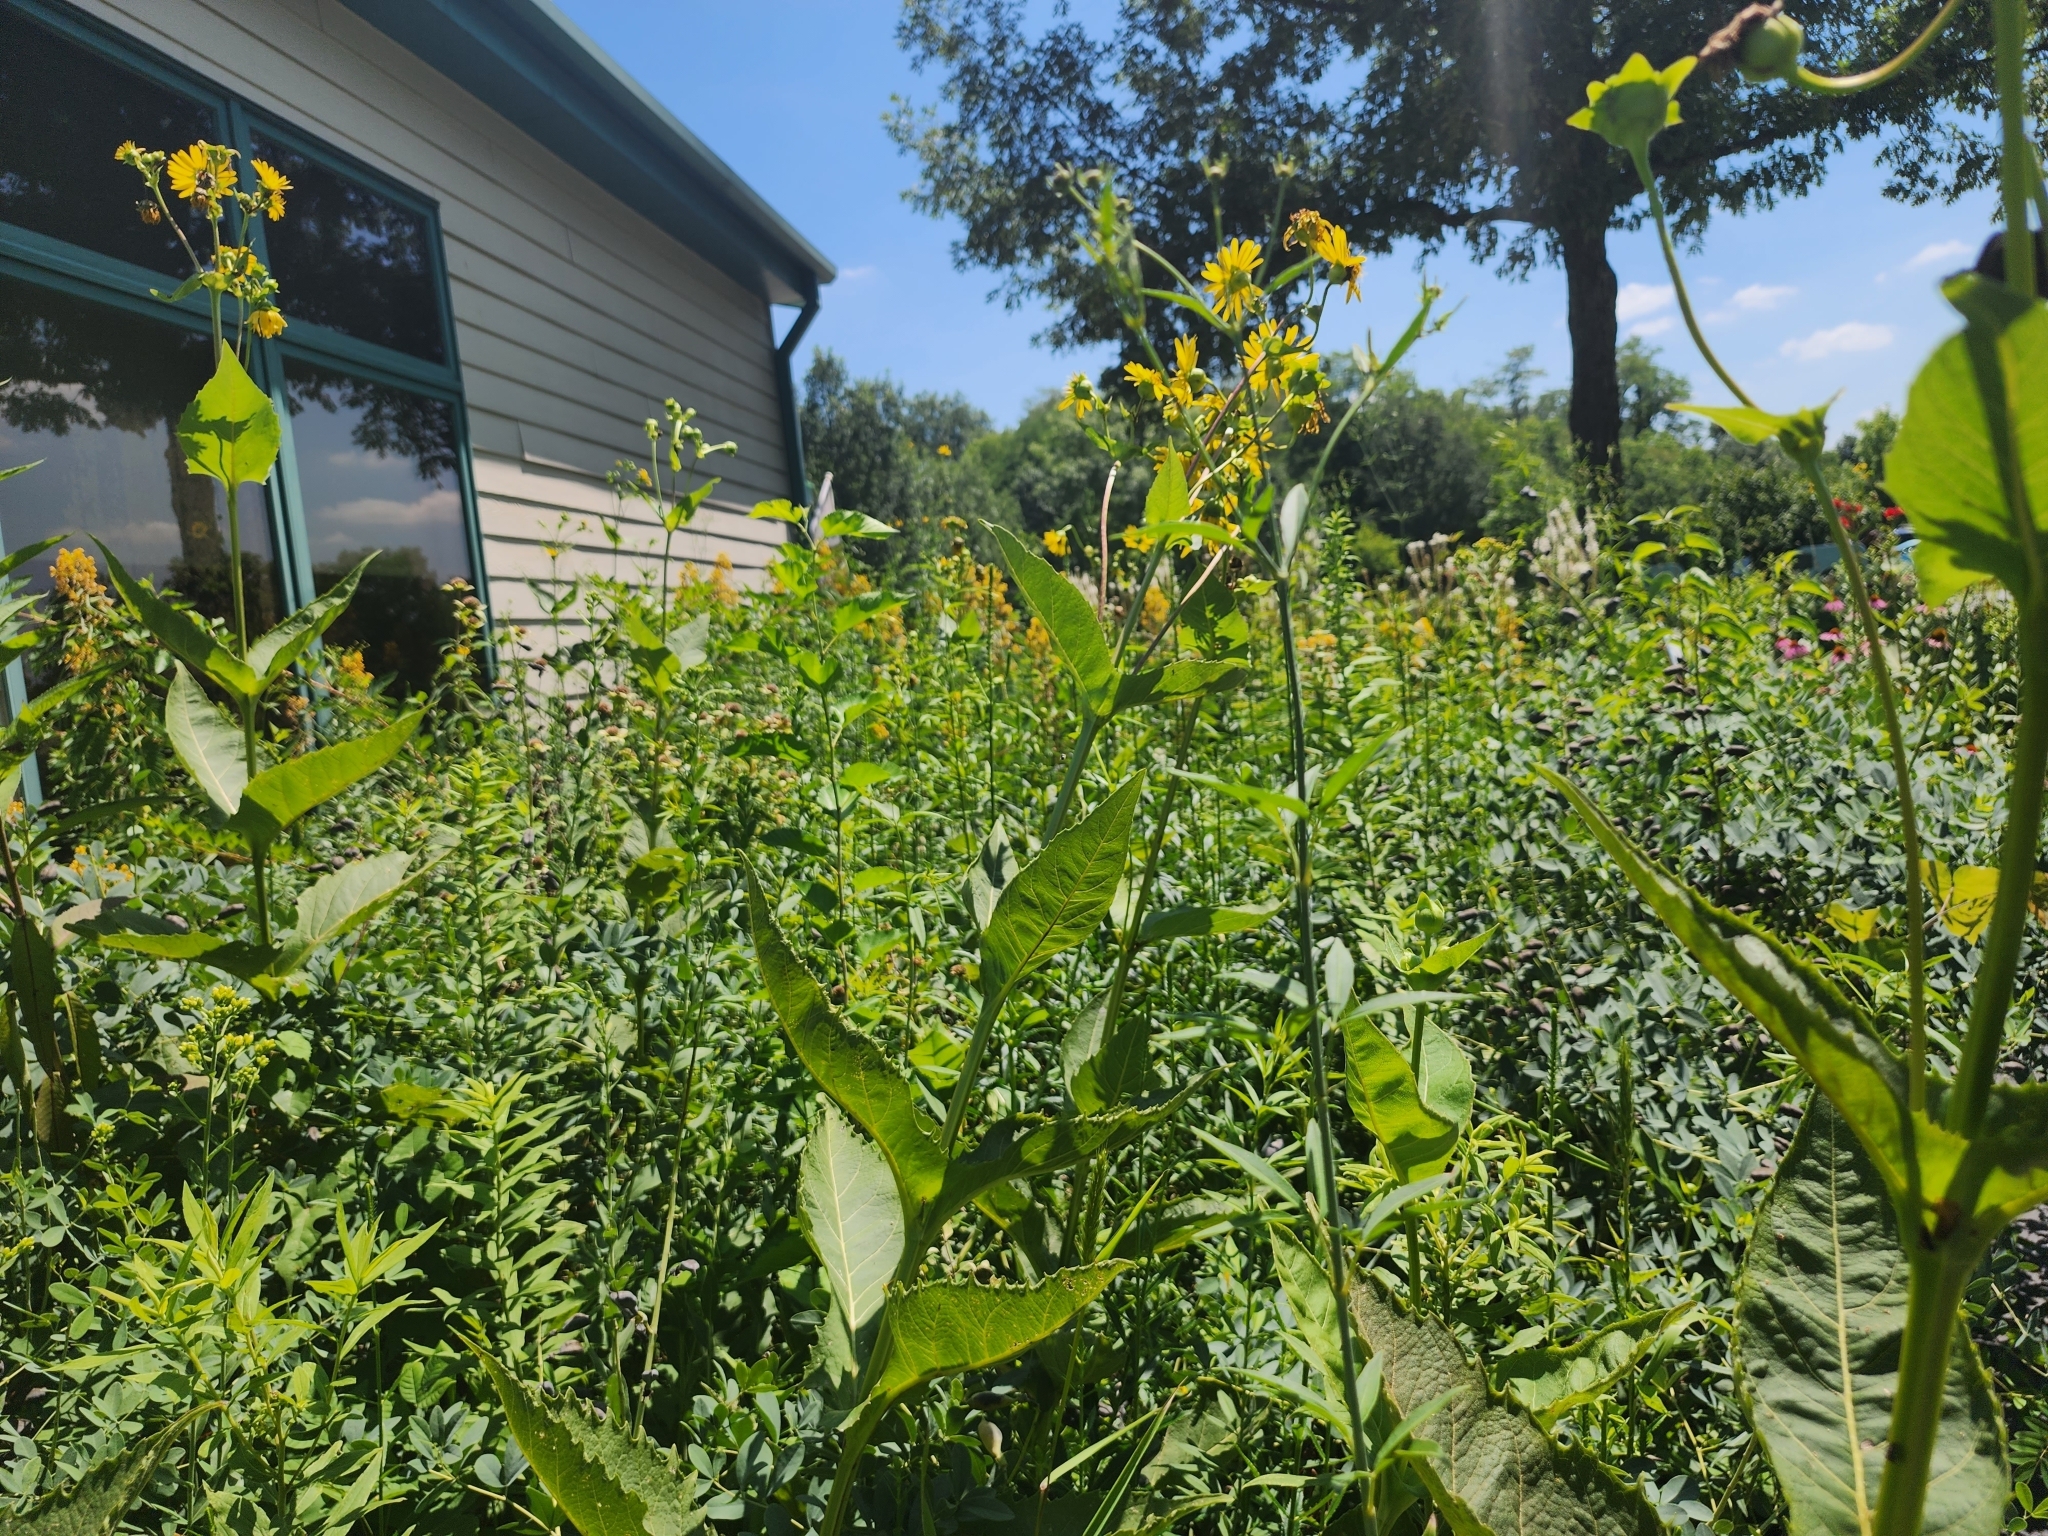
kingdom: Plantae
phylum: Tracheophyta
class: Magnoliopsida
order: Asterales
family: Asteraceae
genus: Silphium
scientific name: Silphium perfoliatum
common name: Cup-plant
